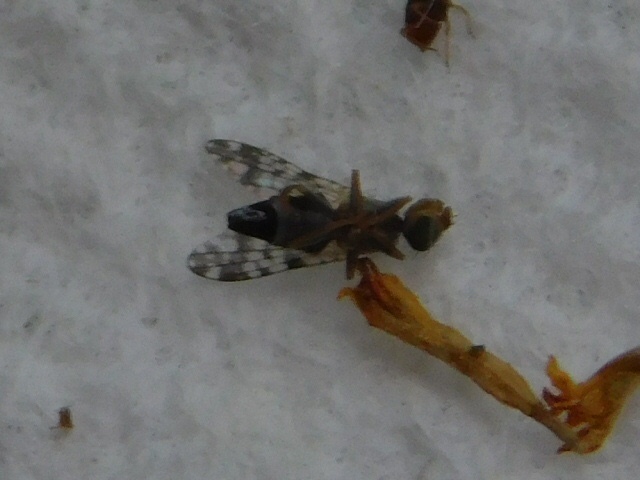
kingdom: Animalia
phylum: Arthropoda
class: Insecta
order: Diptera
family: Tephritidae
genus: Dioxyna
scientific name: Dioxyna picciola
